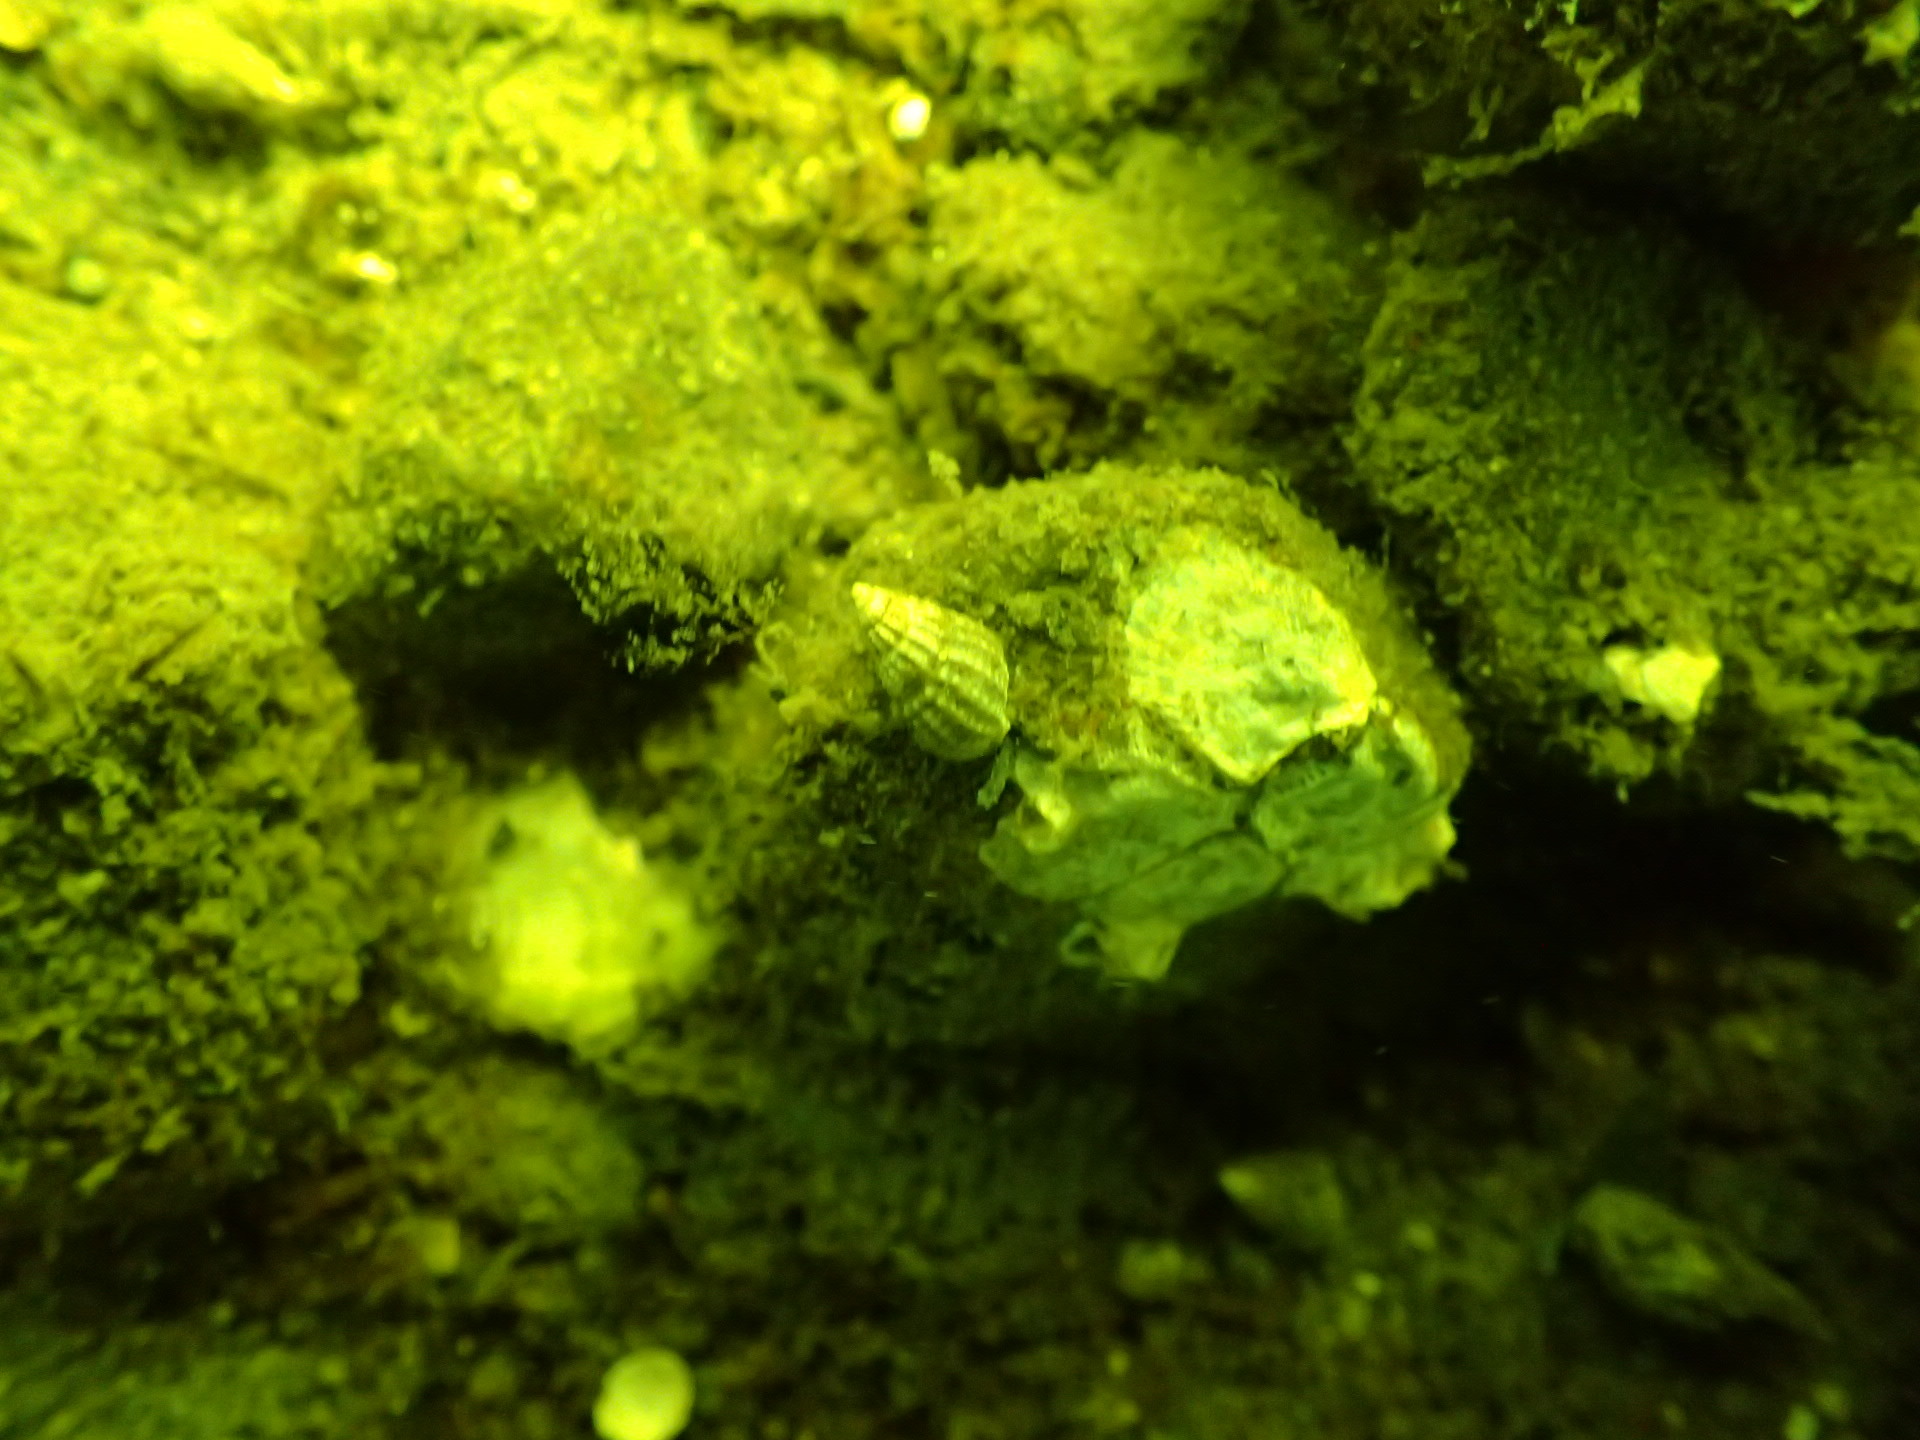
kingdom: Animalia
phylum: Mollusca
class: Gastropoda
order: Neogastropoda
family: Nassariidae
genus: Ilyanassa
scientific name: Ilyanassa trivittata
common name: Three-line mudsnail
